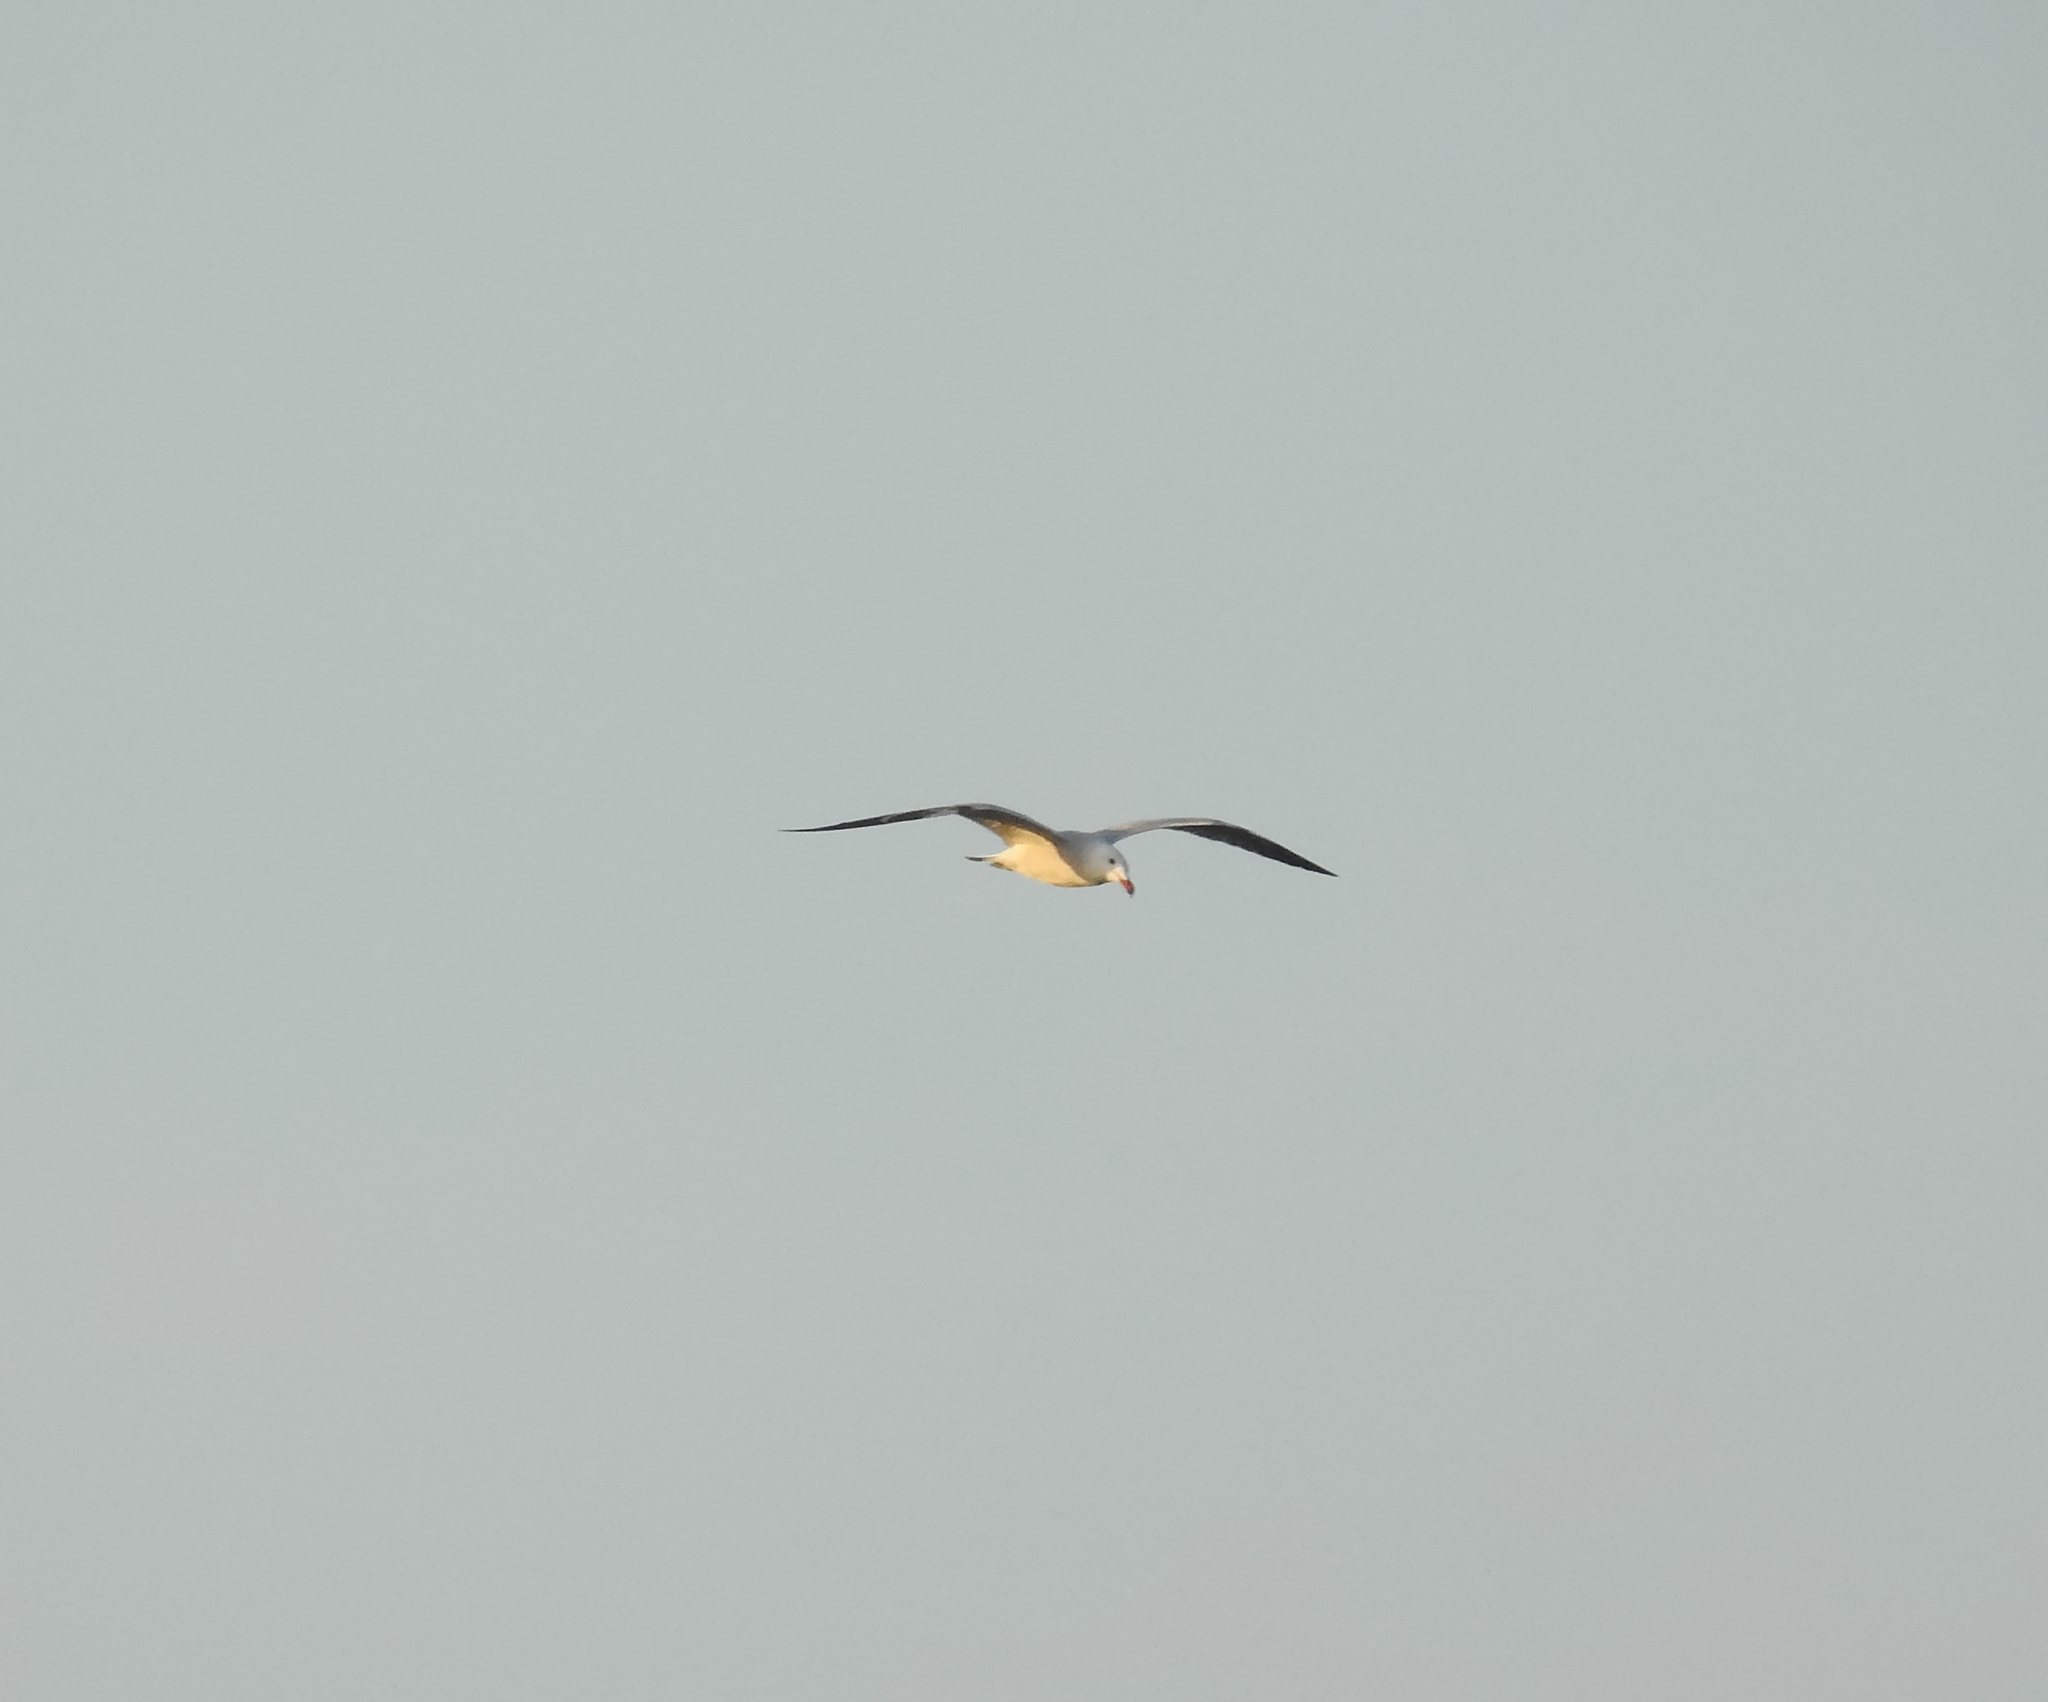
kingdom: Animalia
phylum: Chordata
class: Aves
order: Charadriiformes
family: Laridae
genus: Ichthyaetus
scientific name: Ichthyaetus audouinii
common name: Audouin's gull
